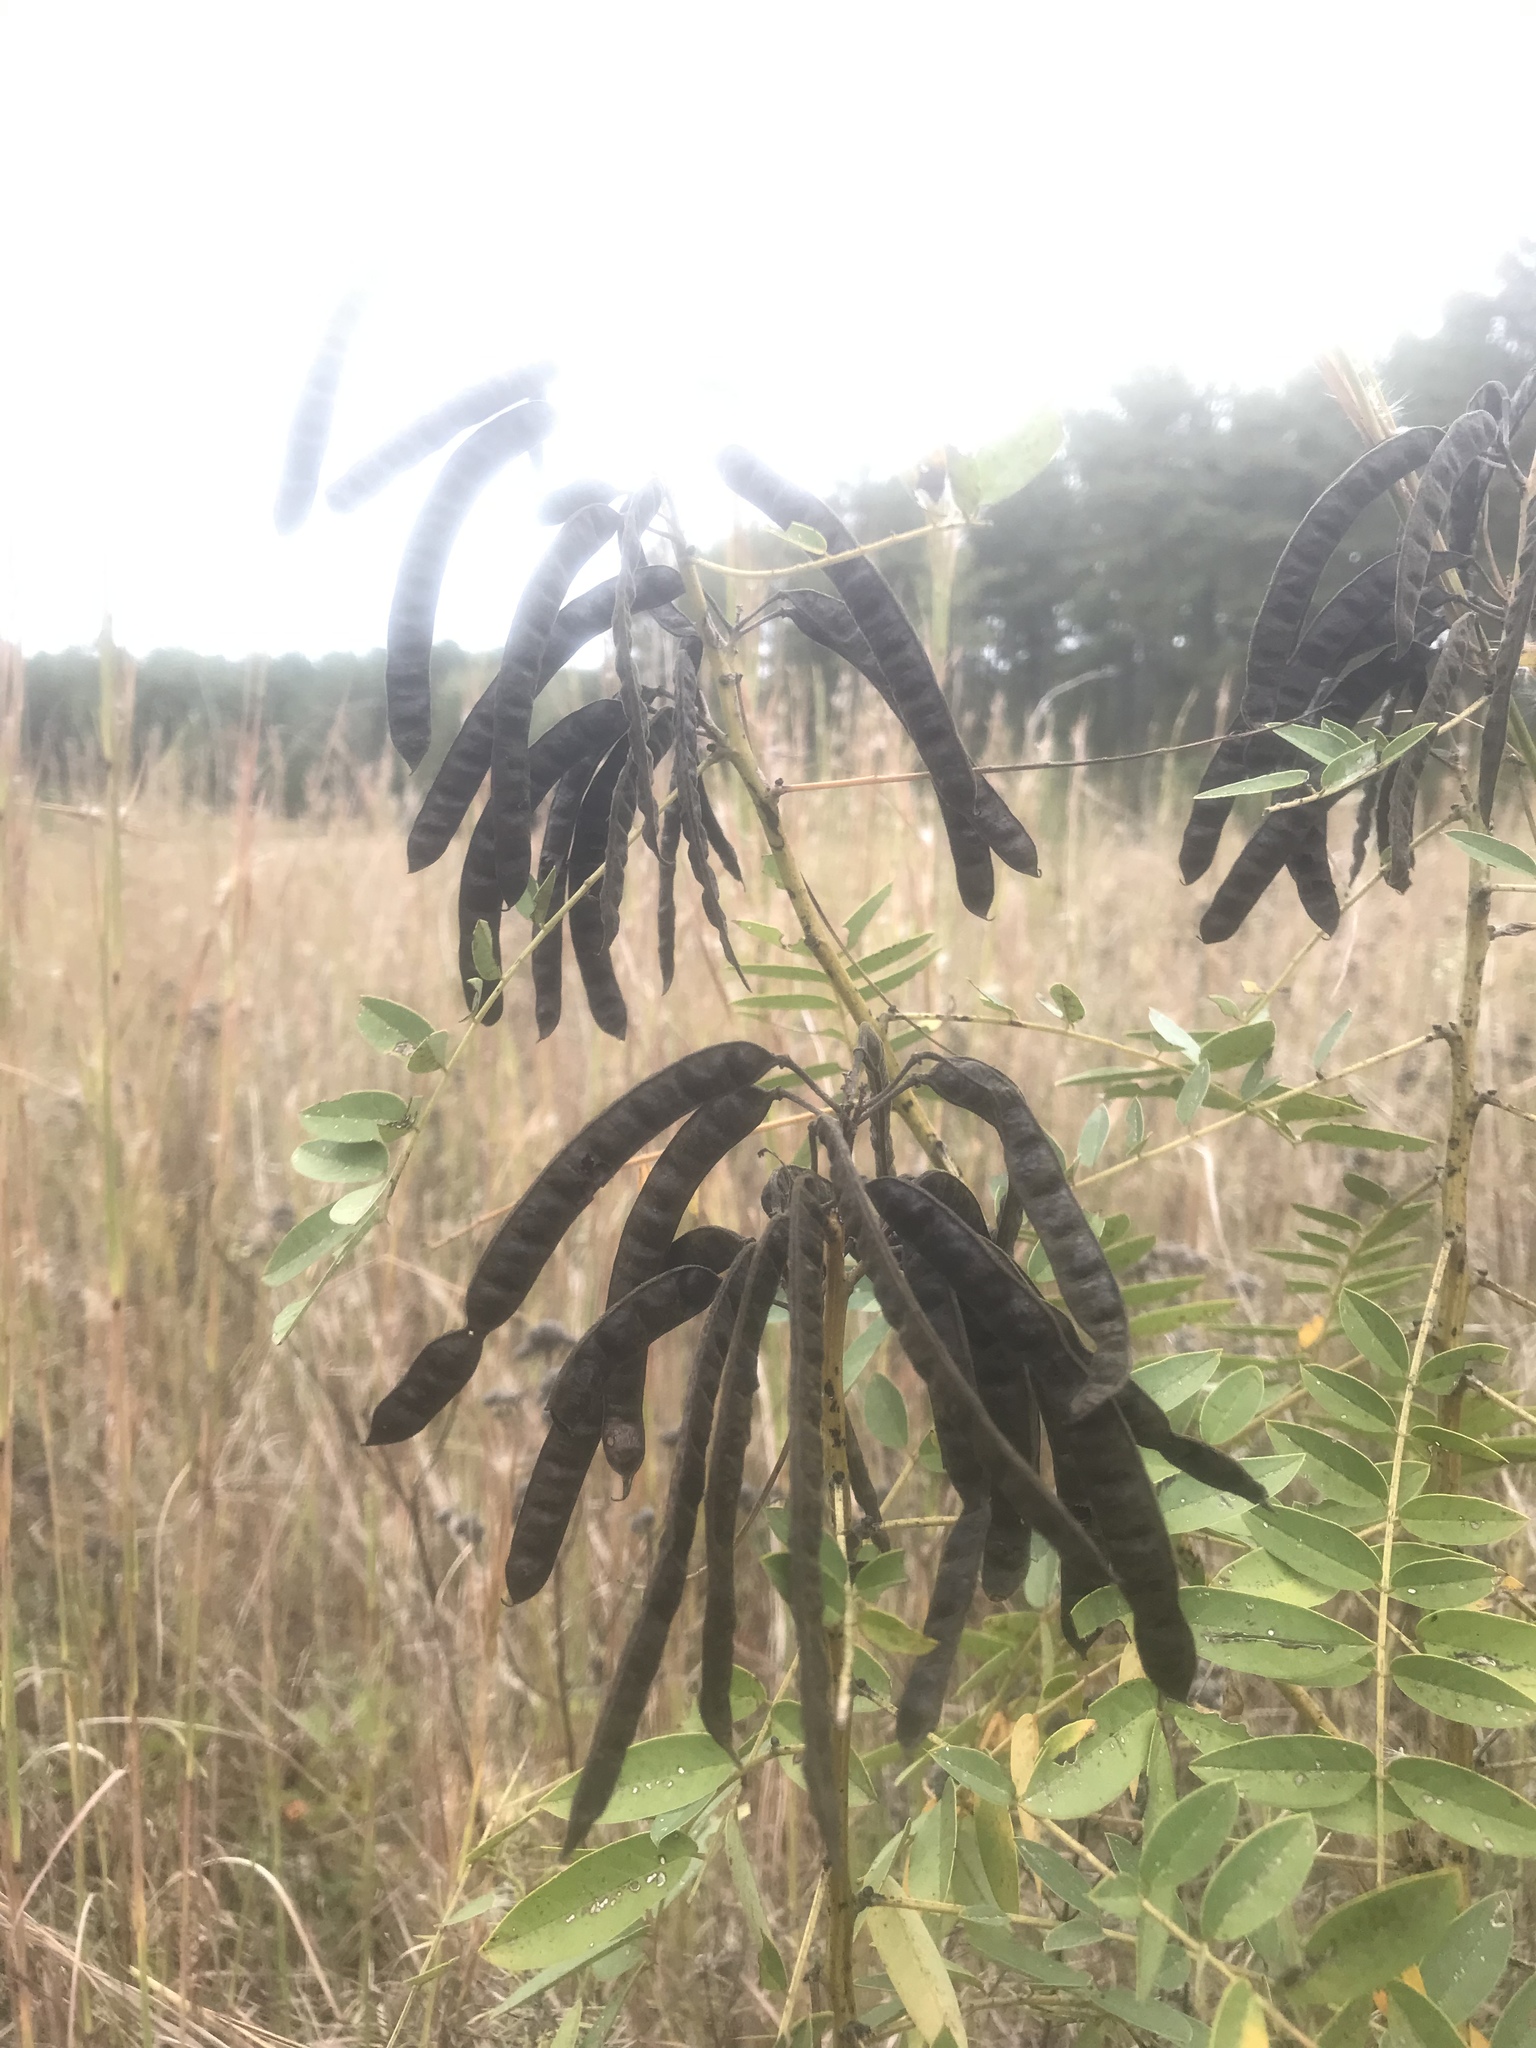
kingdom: Plantae
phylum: Tracheophyta
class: Magnoliopsida
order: Fabales
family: Fabaceae
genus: Senna
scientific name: Senna marilandica
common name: American senna
